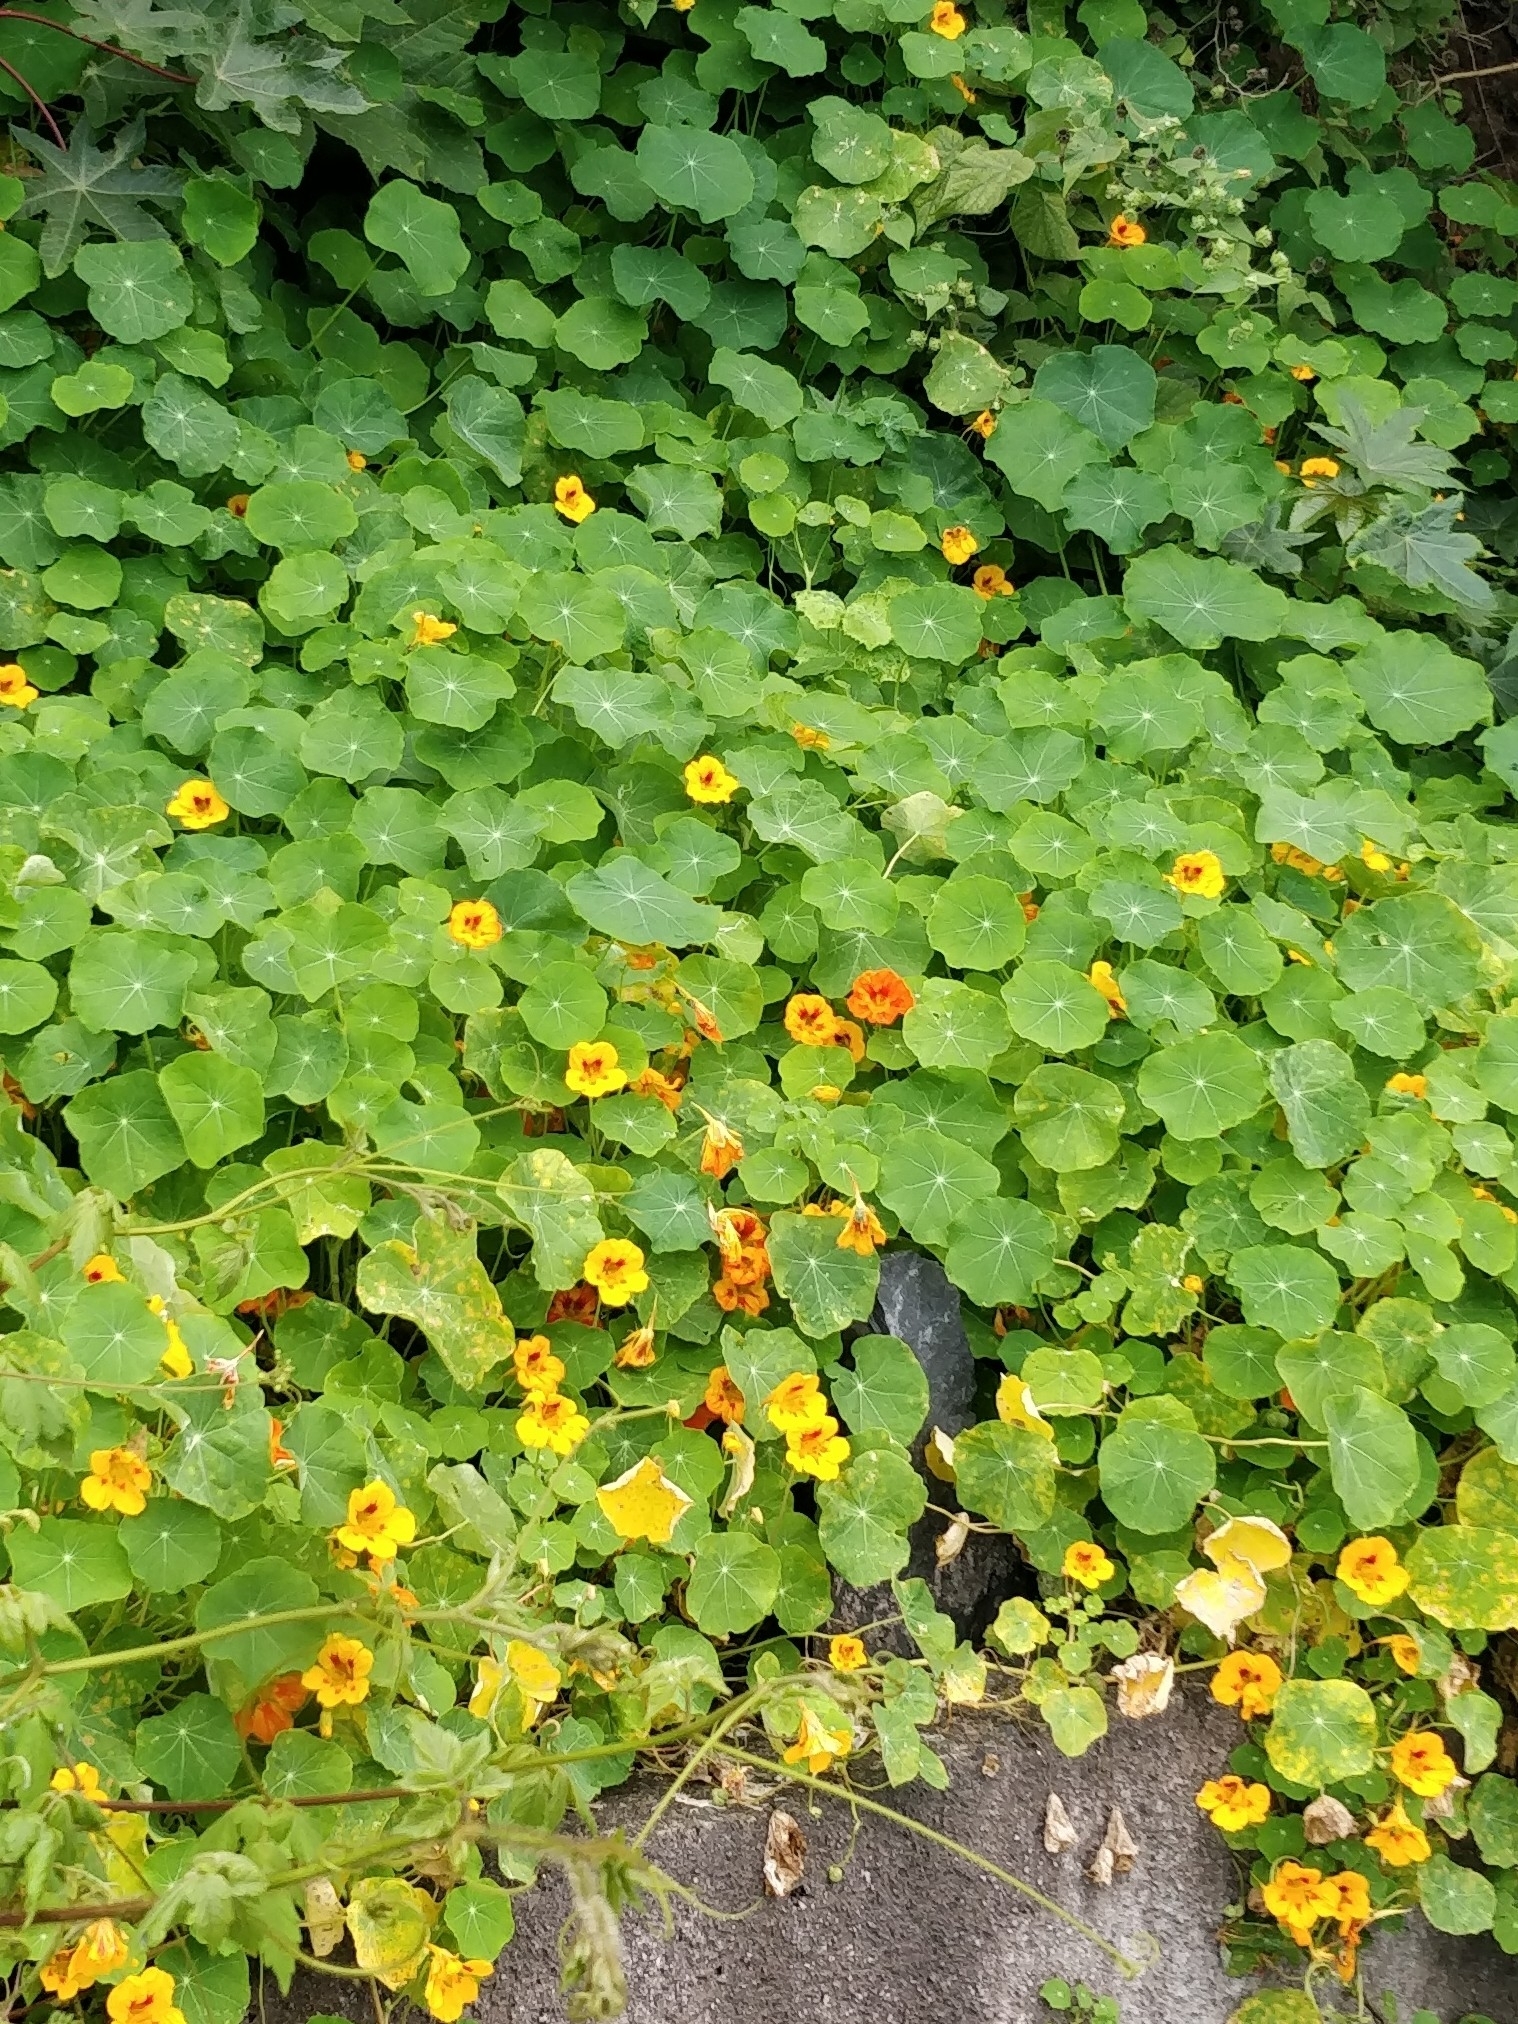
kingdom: Plantae
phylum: Tracheophyta
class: Magnoliopsida
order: Brassicales
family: Tropaeolaceae
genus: Tropaeolum
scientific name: Tropaeolum majus
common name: Nasturtium
